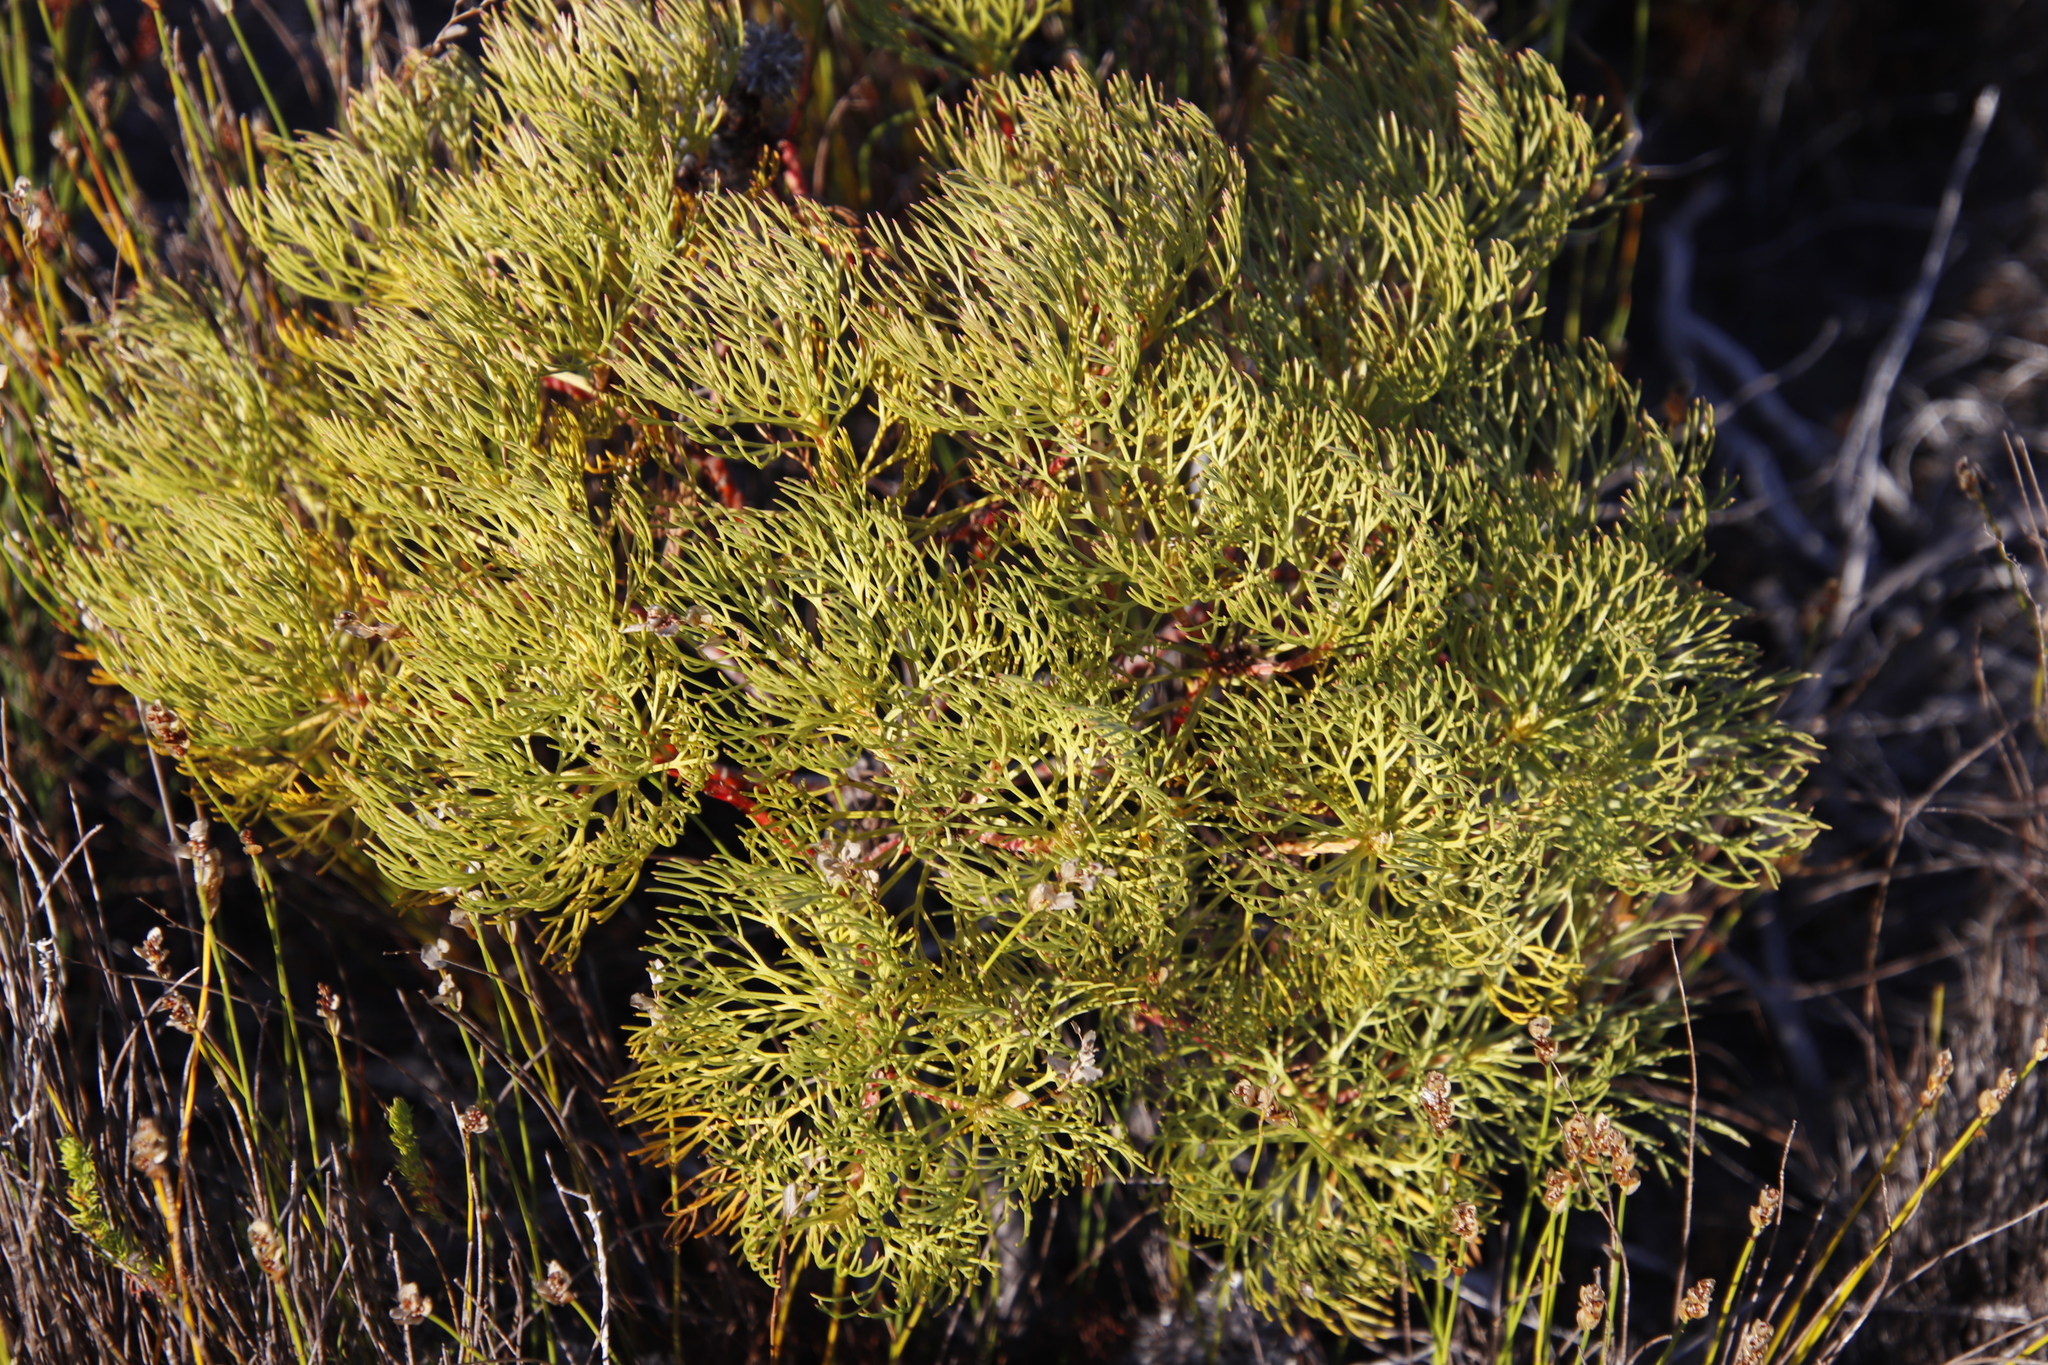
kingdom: Plantae
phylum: Tracheophyta
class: Magnoliopsida
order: Proteales
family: Proteaceae
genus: Serruria
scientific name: Serruria glomerata
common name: Cluster spiderhead
